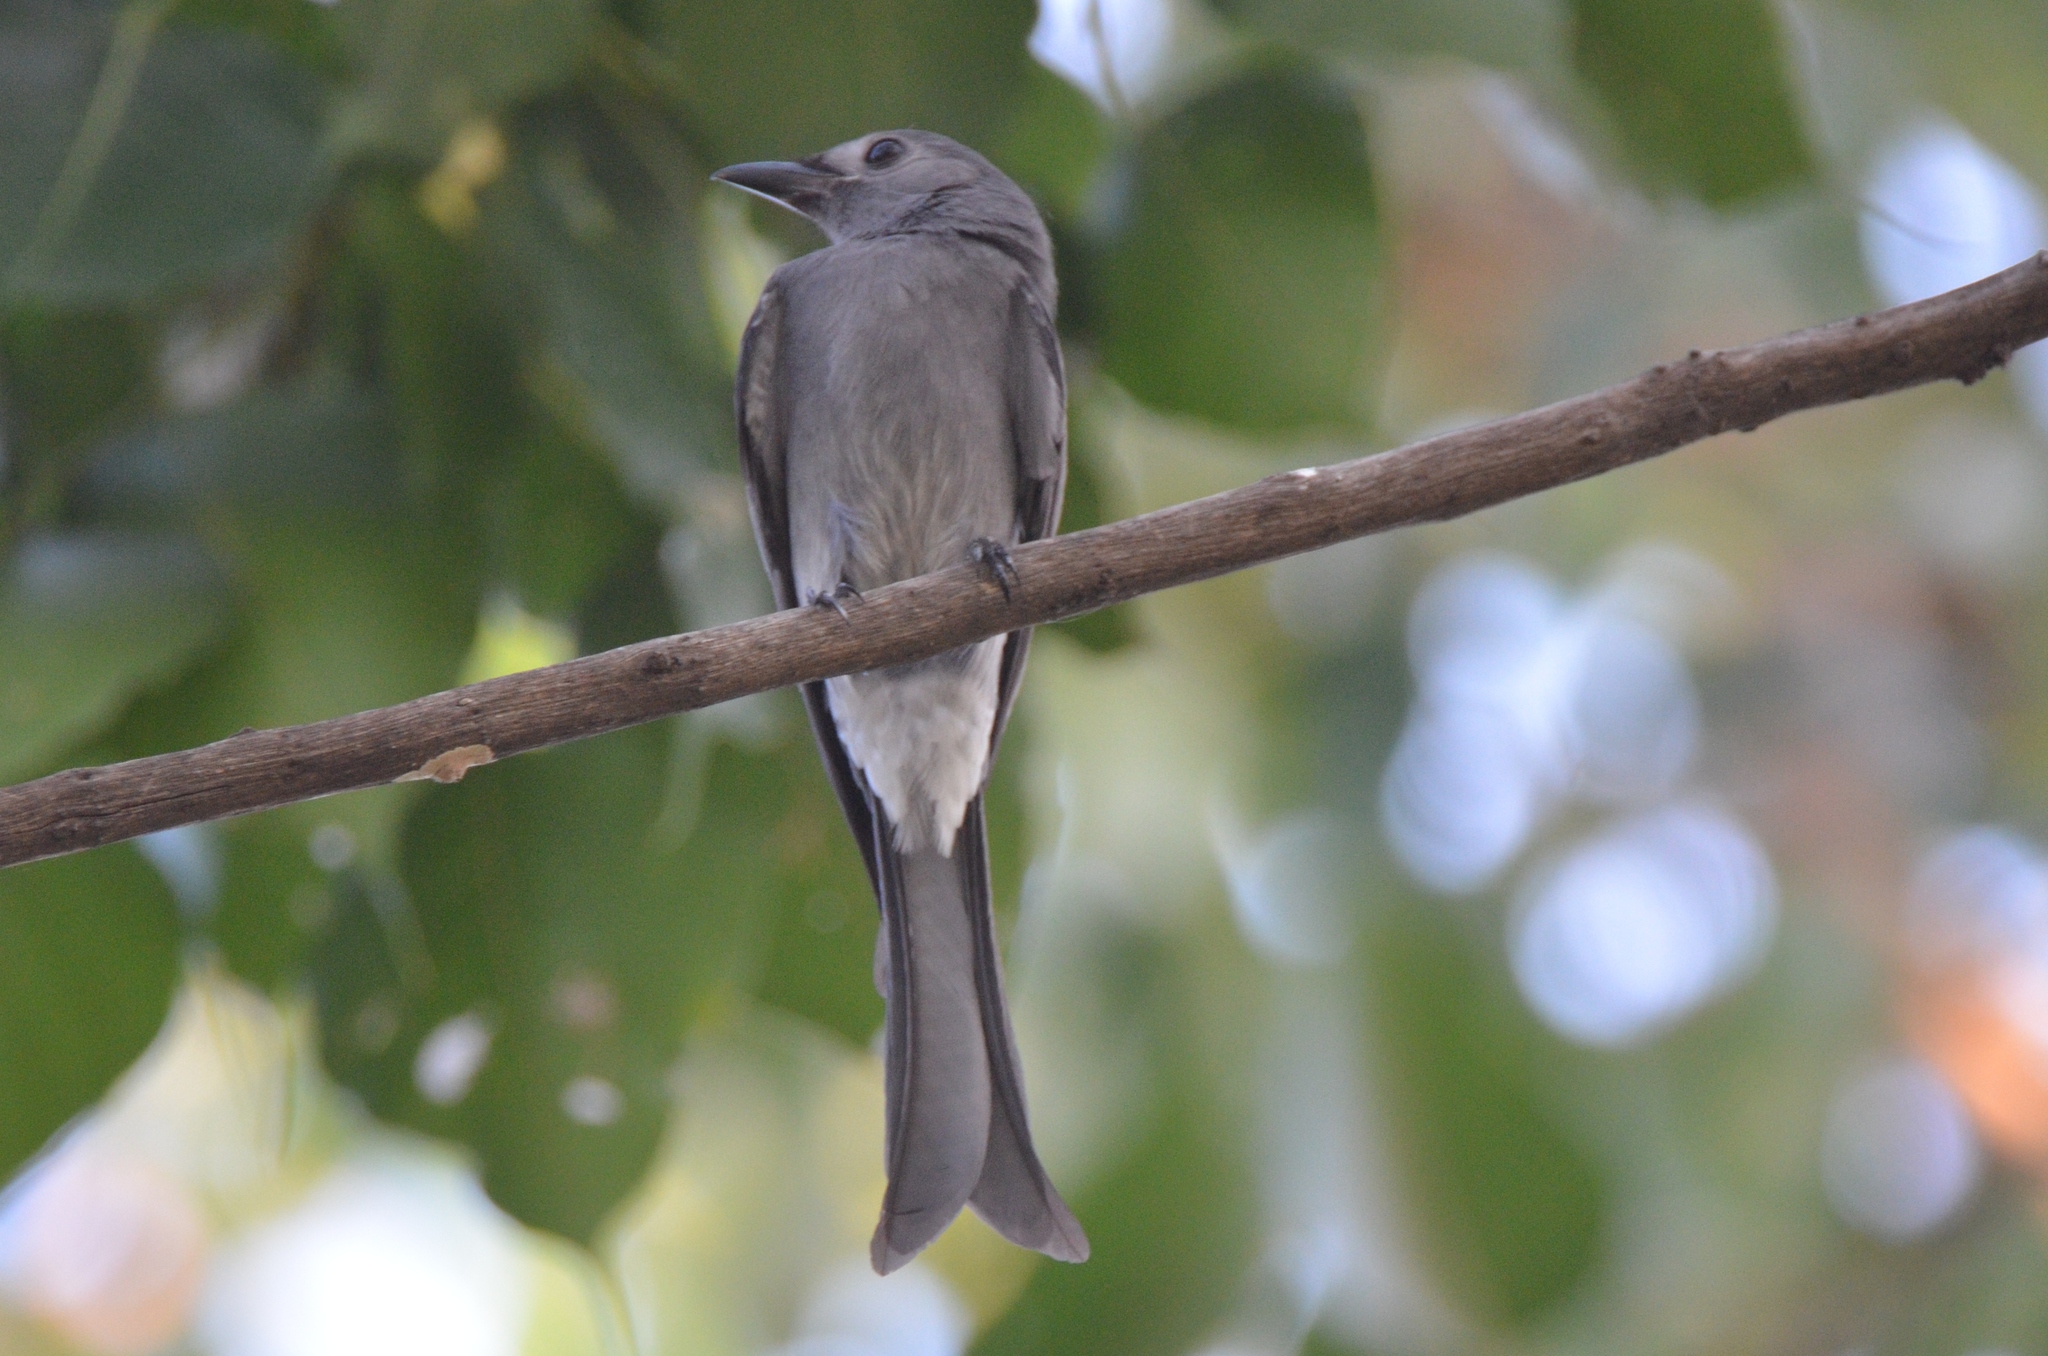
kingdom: Animalia
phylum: Chordata
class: Aves
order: Passeriformes
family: Dicruridae
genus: Dicrurus
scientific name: Dicrurus leucophaeus
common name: Ashy drongo
